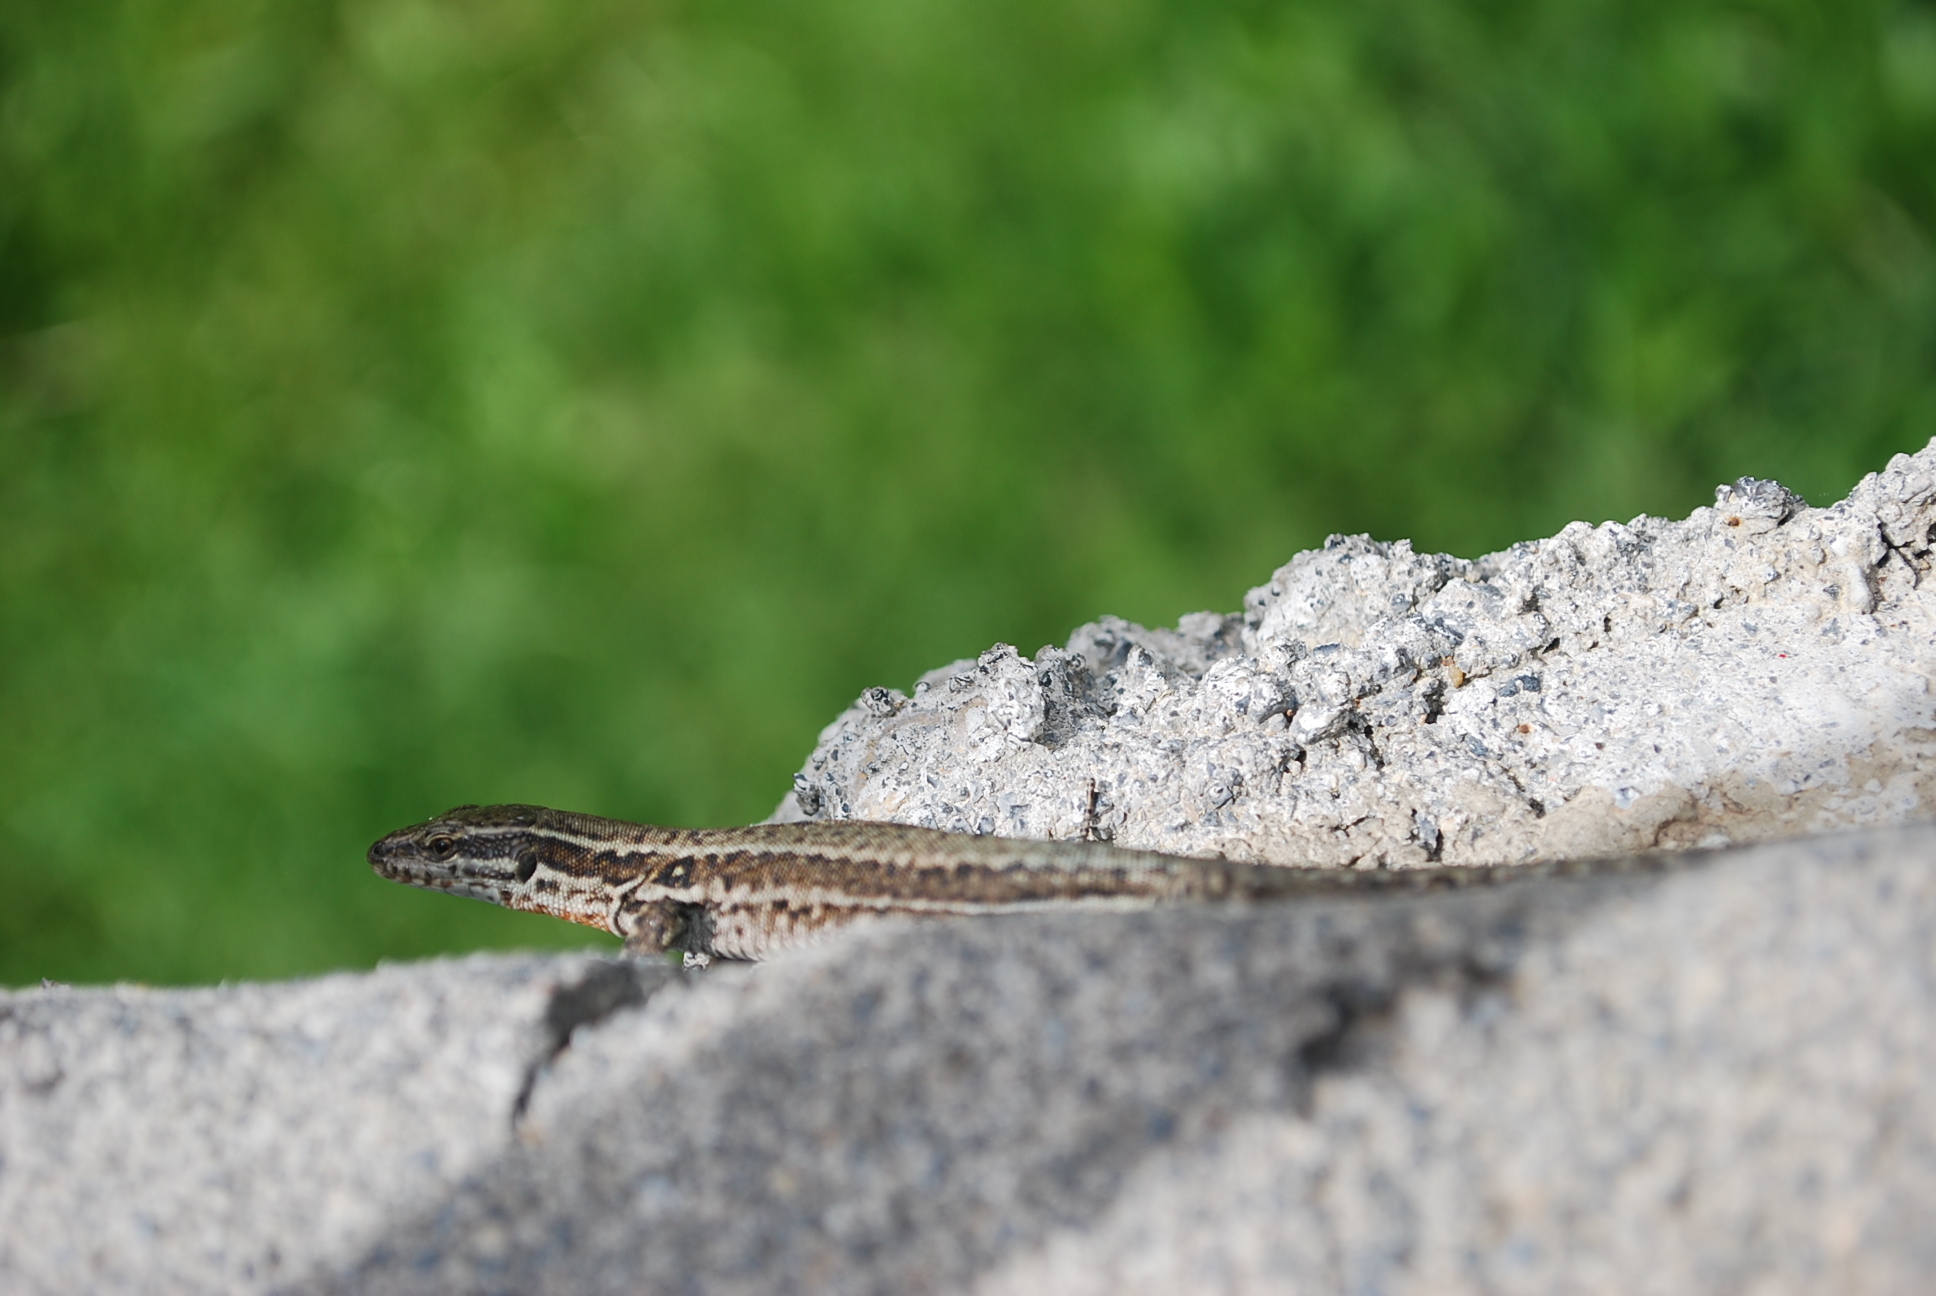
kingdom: Animalia
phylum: Chordata
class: Squamata
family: Lacertidae
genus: Podarcis
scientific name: Podarcis muralis
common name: Common wall lizard
